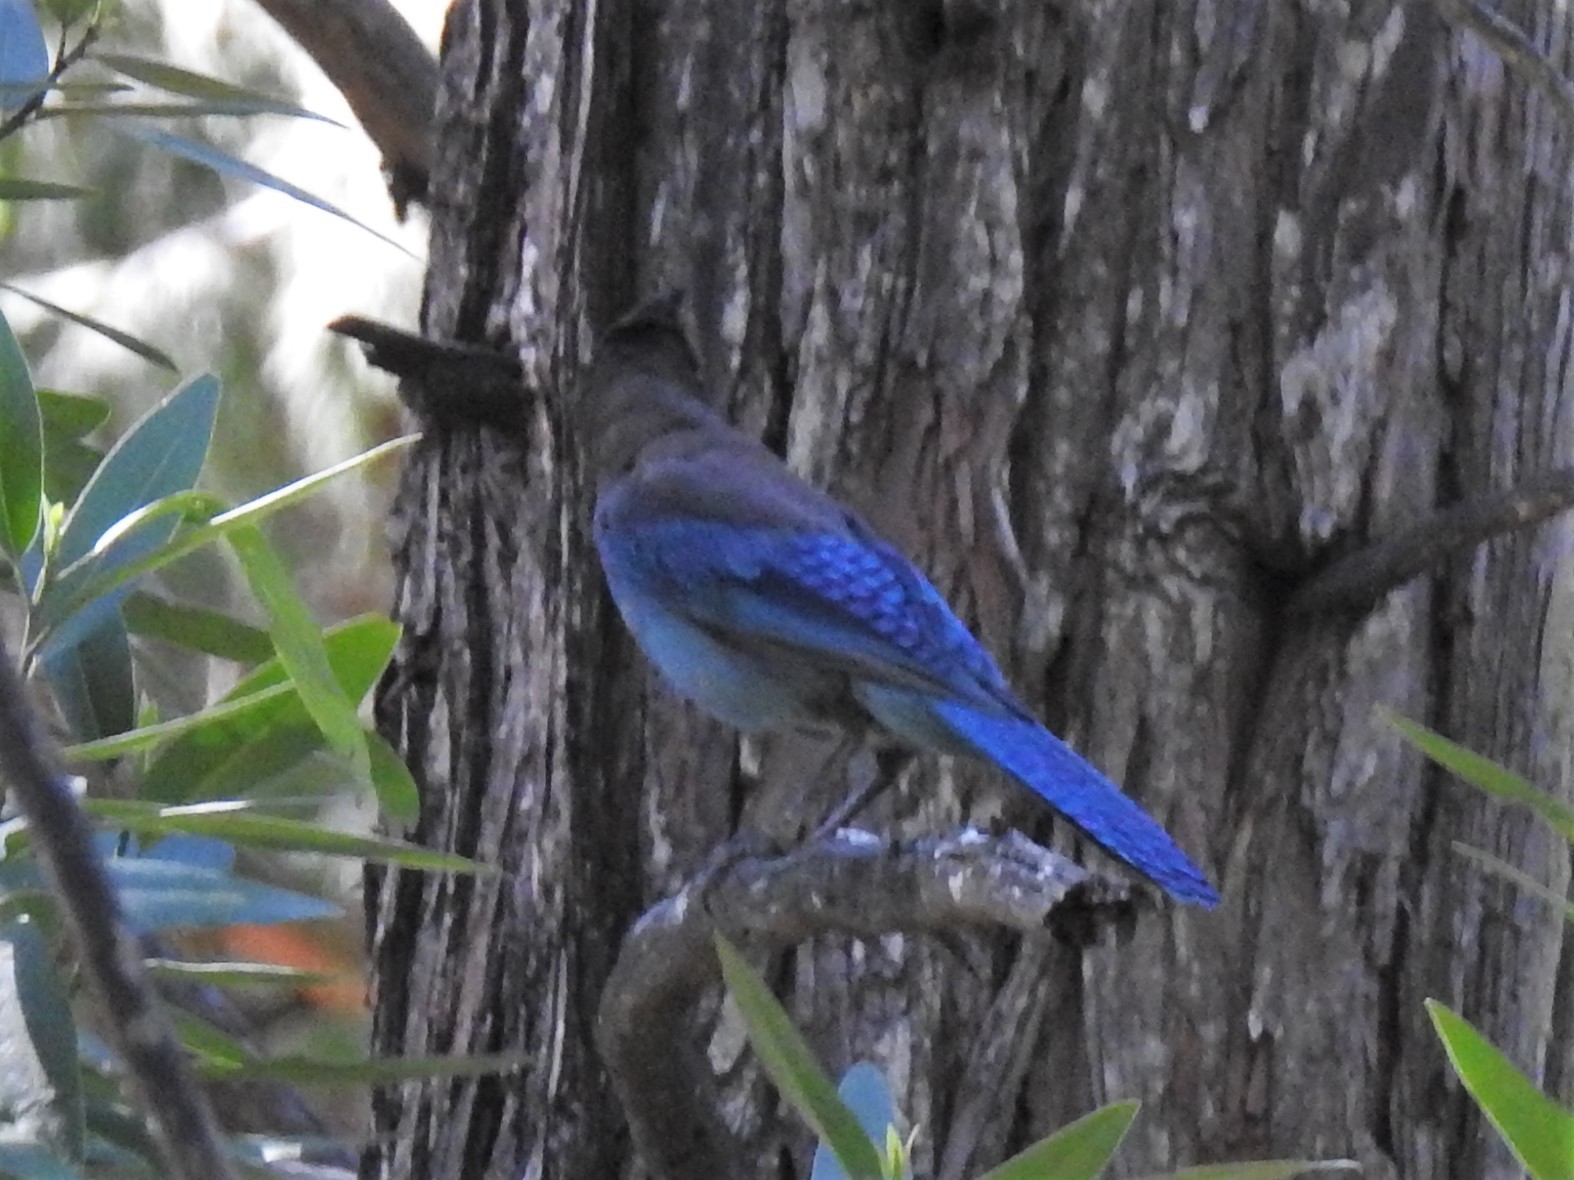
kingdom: Animalia
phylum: Chordata
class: Aves
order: Passeriformes
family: Corvidae
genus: Cyanocitta
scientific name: Cyanocitta stelleri
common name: Steller's jay
